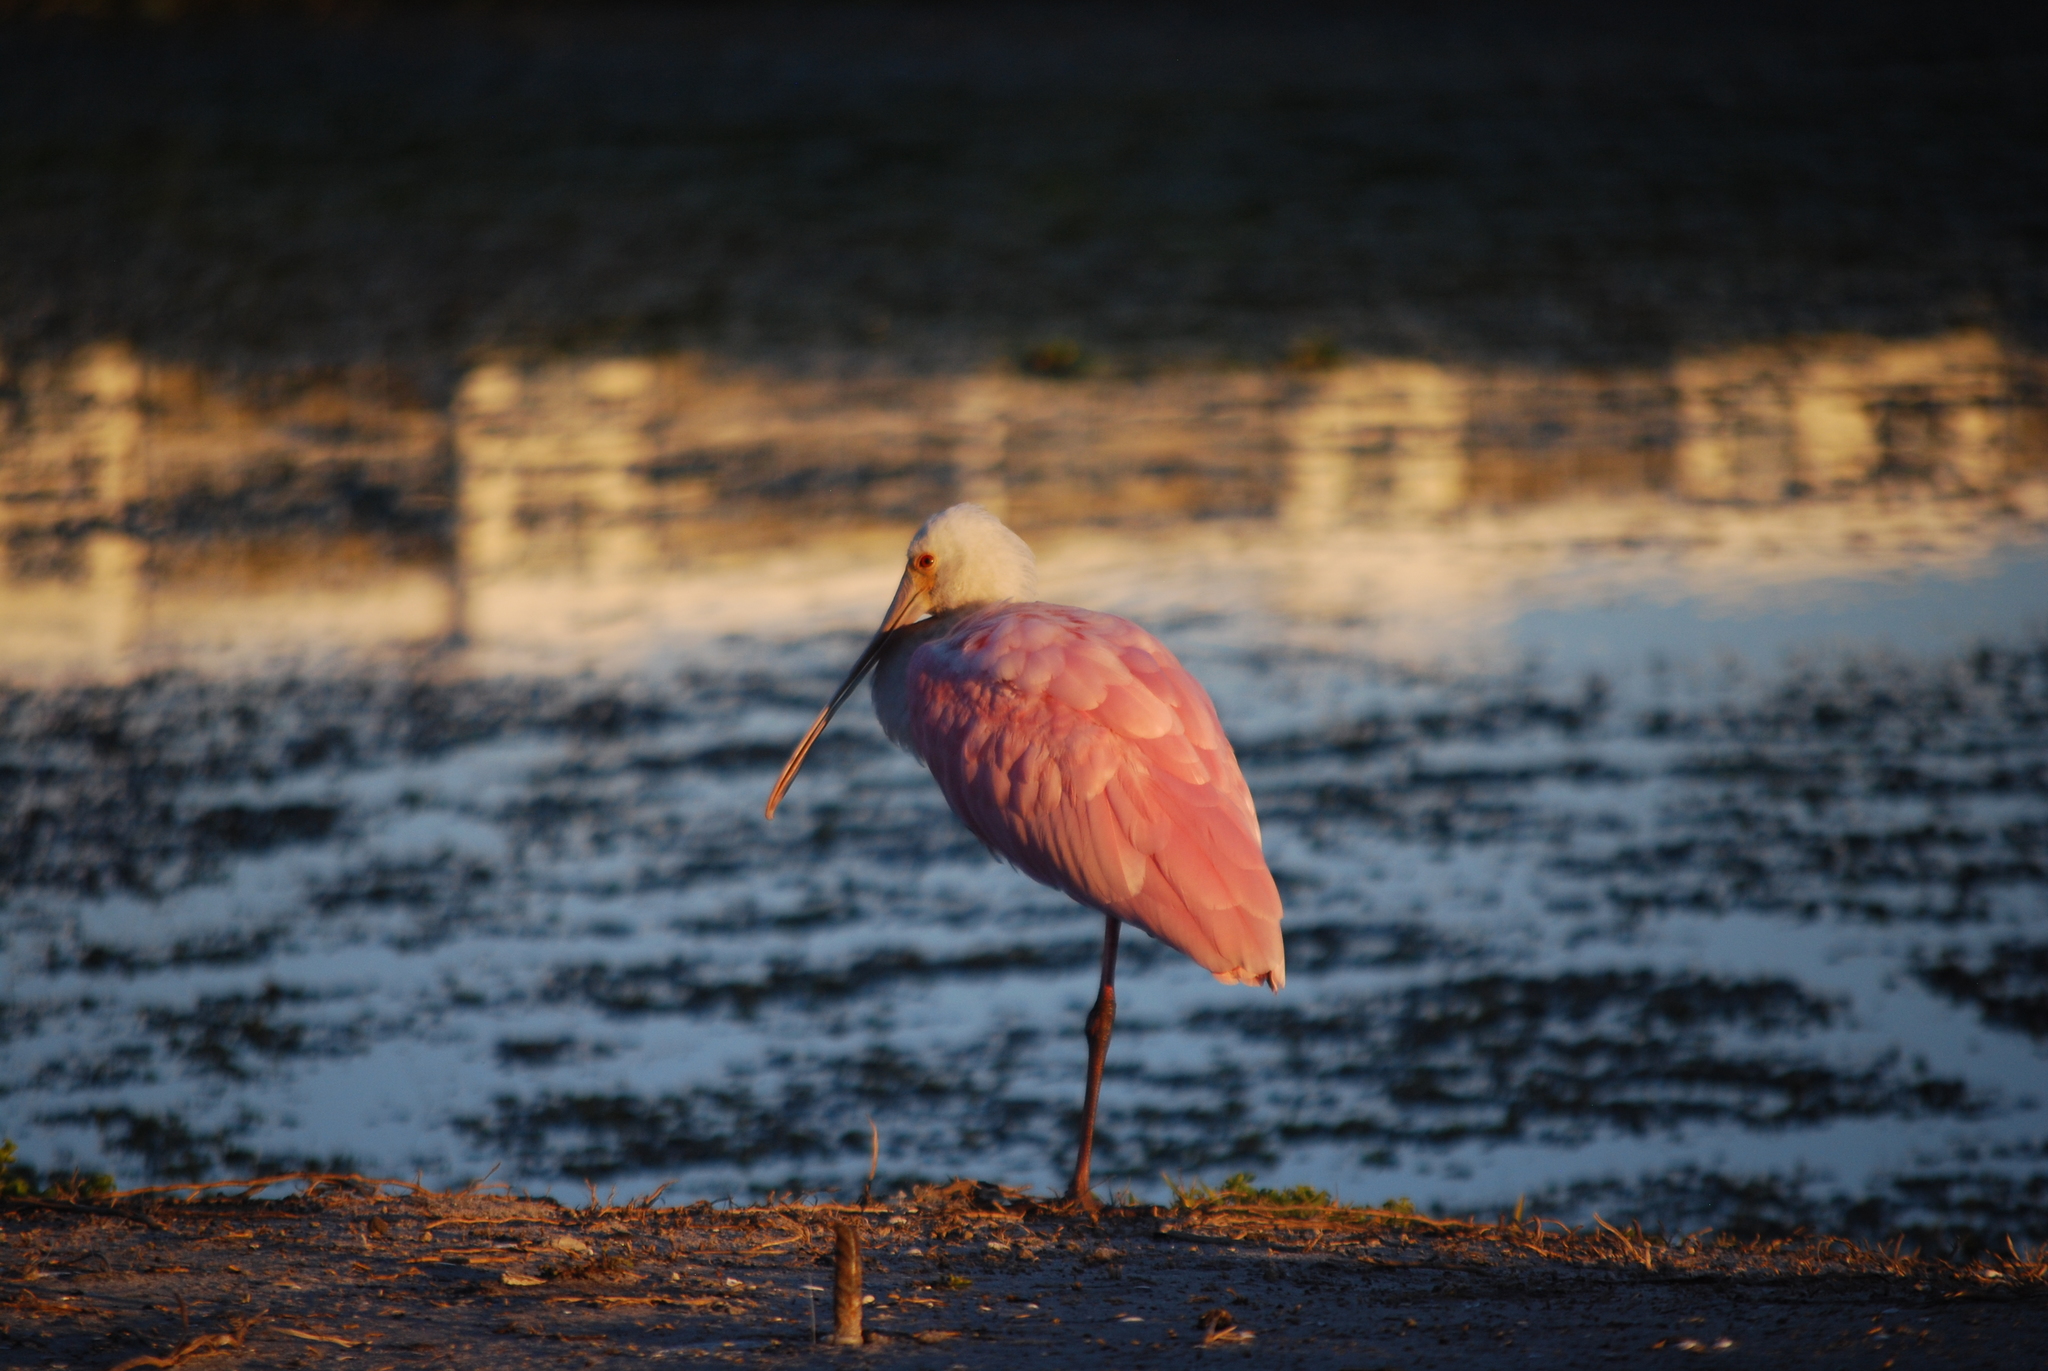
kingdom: Animalia
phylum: Chordata
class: Aves
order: Pelecaniformes
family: Threskiornithidae
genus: Platalea
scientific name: Platalea ajaja
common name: Roseate spoonbill
